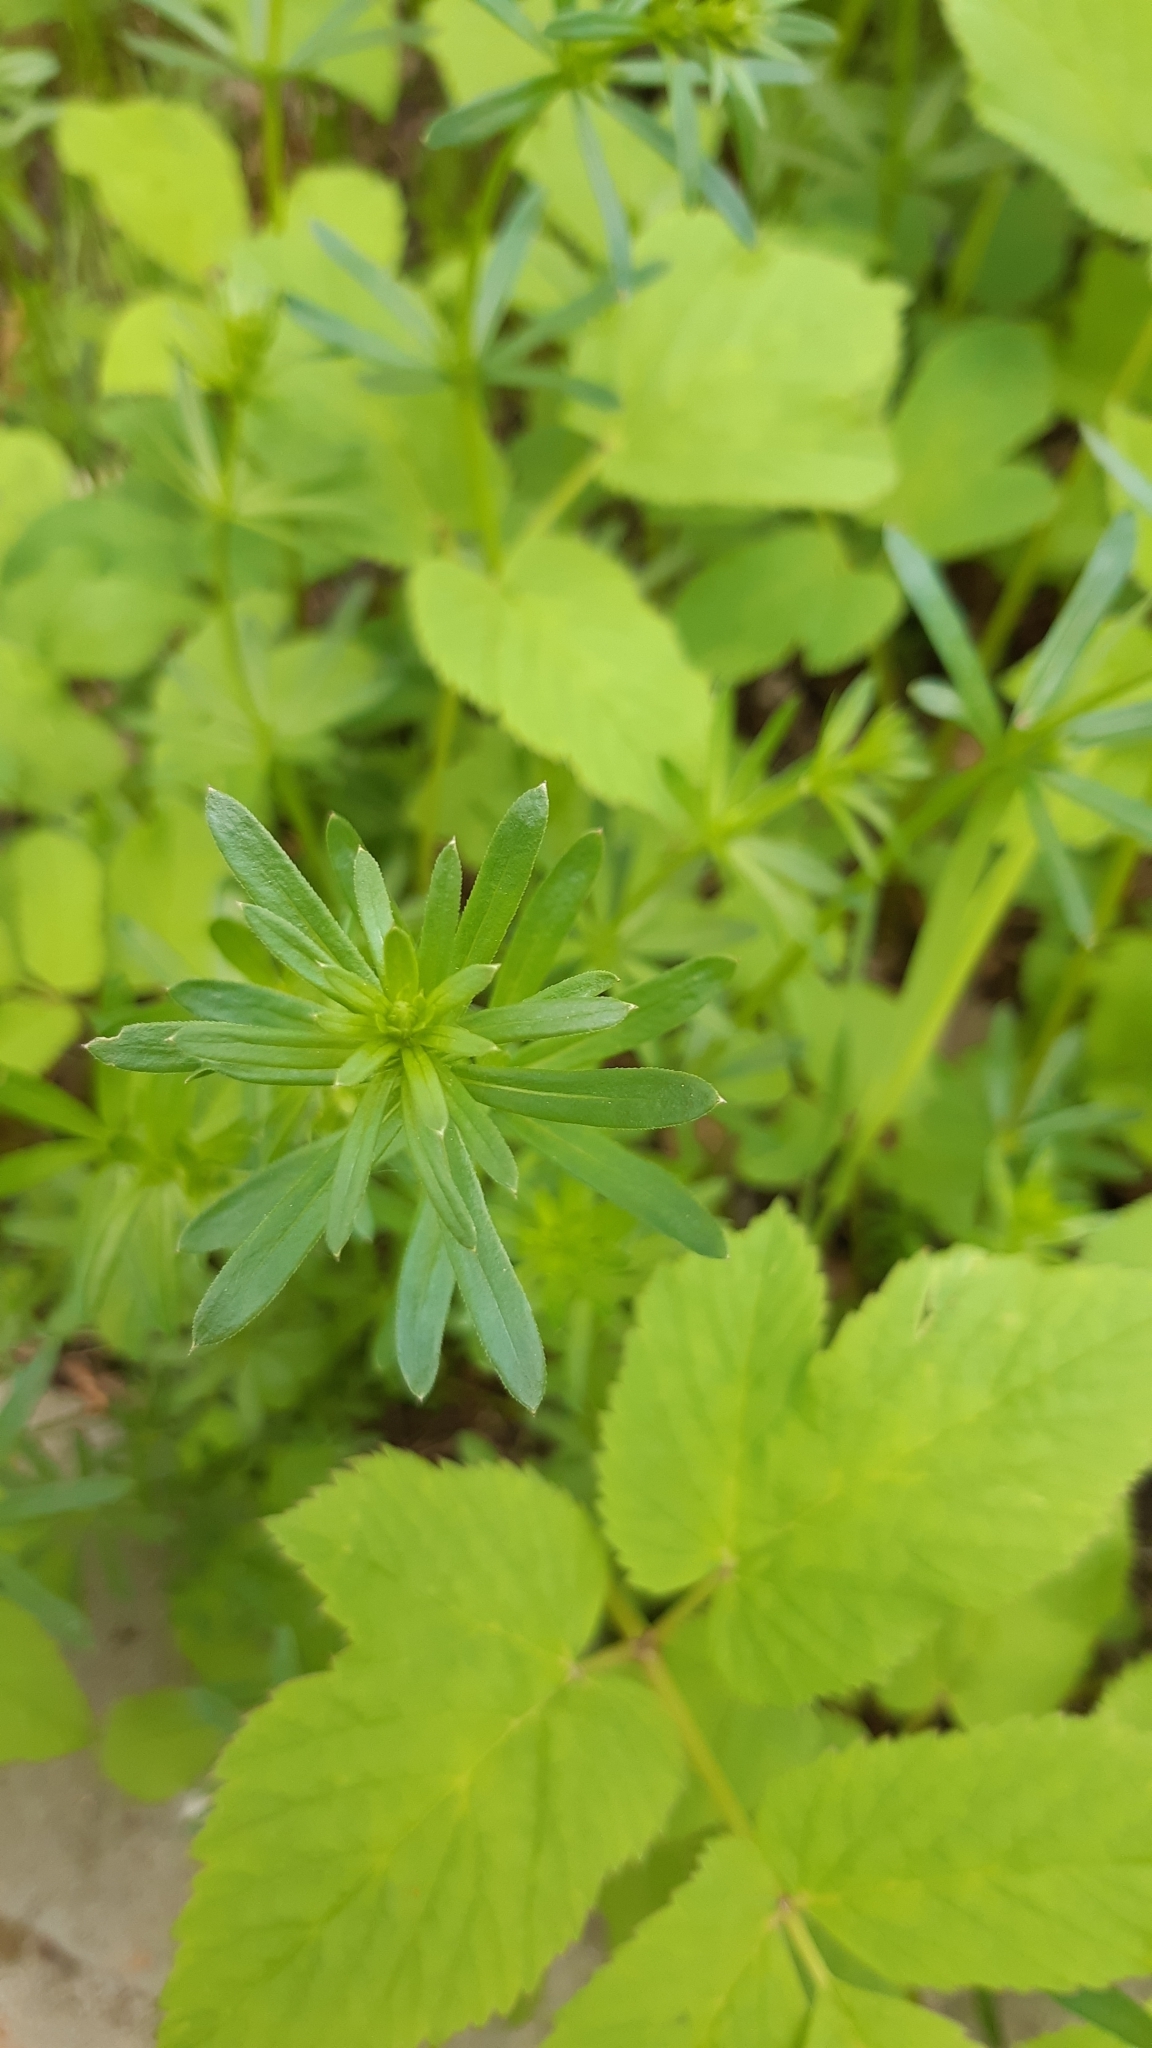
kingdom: Plantae
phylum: Tracheophyta
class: Magnoliopsida
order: Gentianales
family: Rubiaceae
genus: Galium
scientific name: Galium mollugo
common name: Hedge bedstraw
